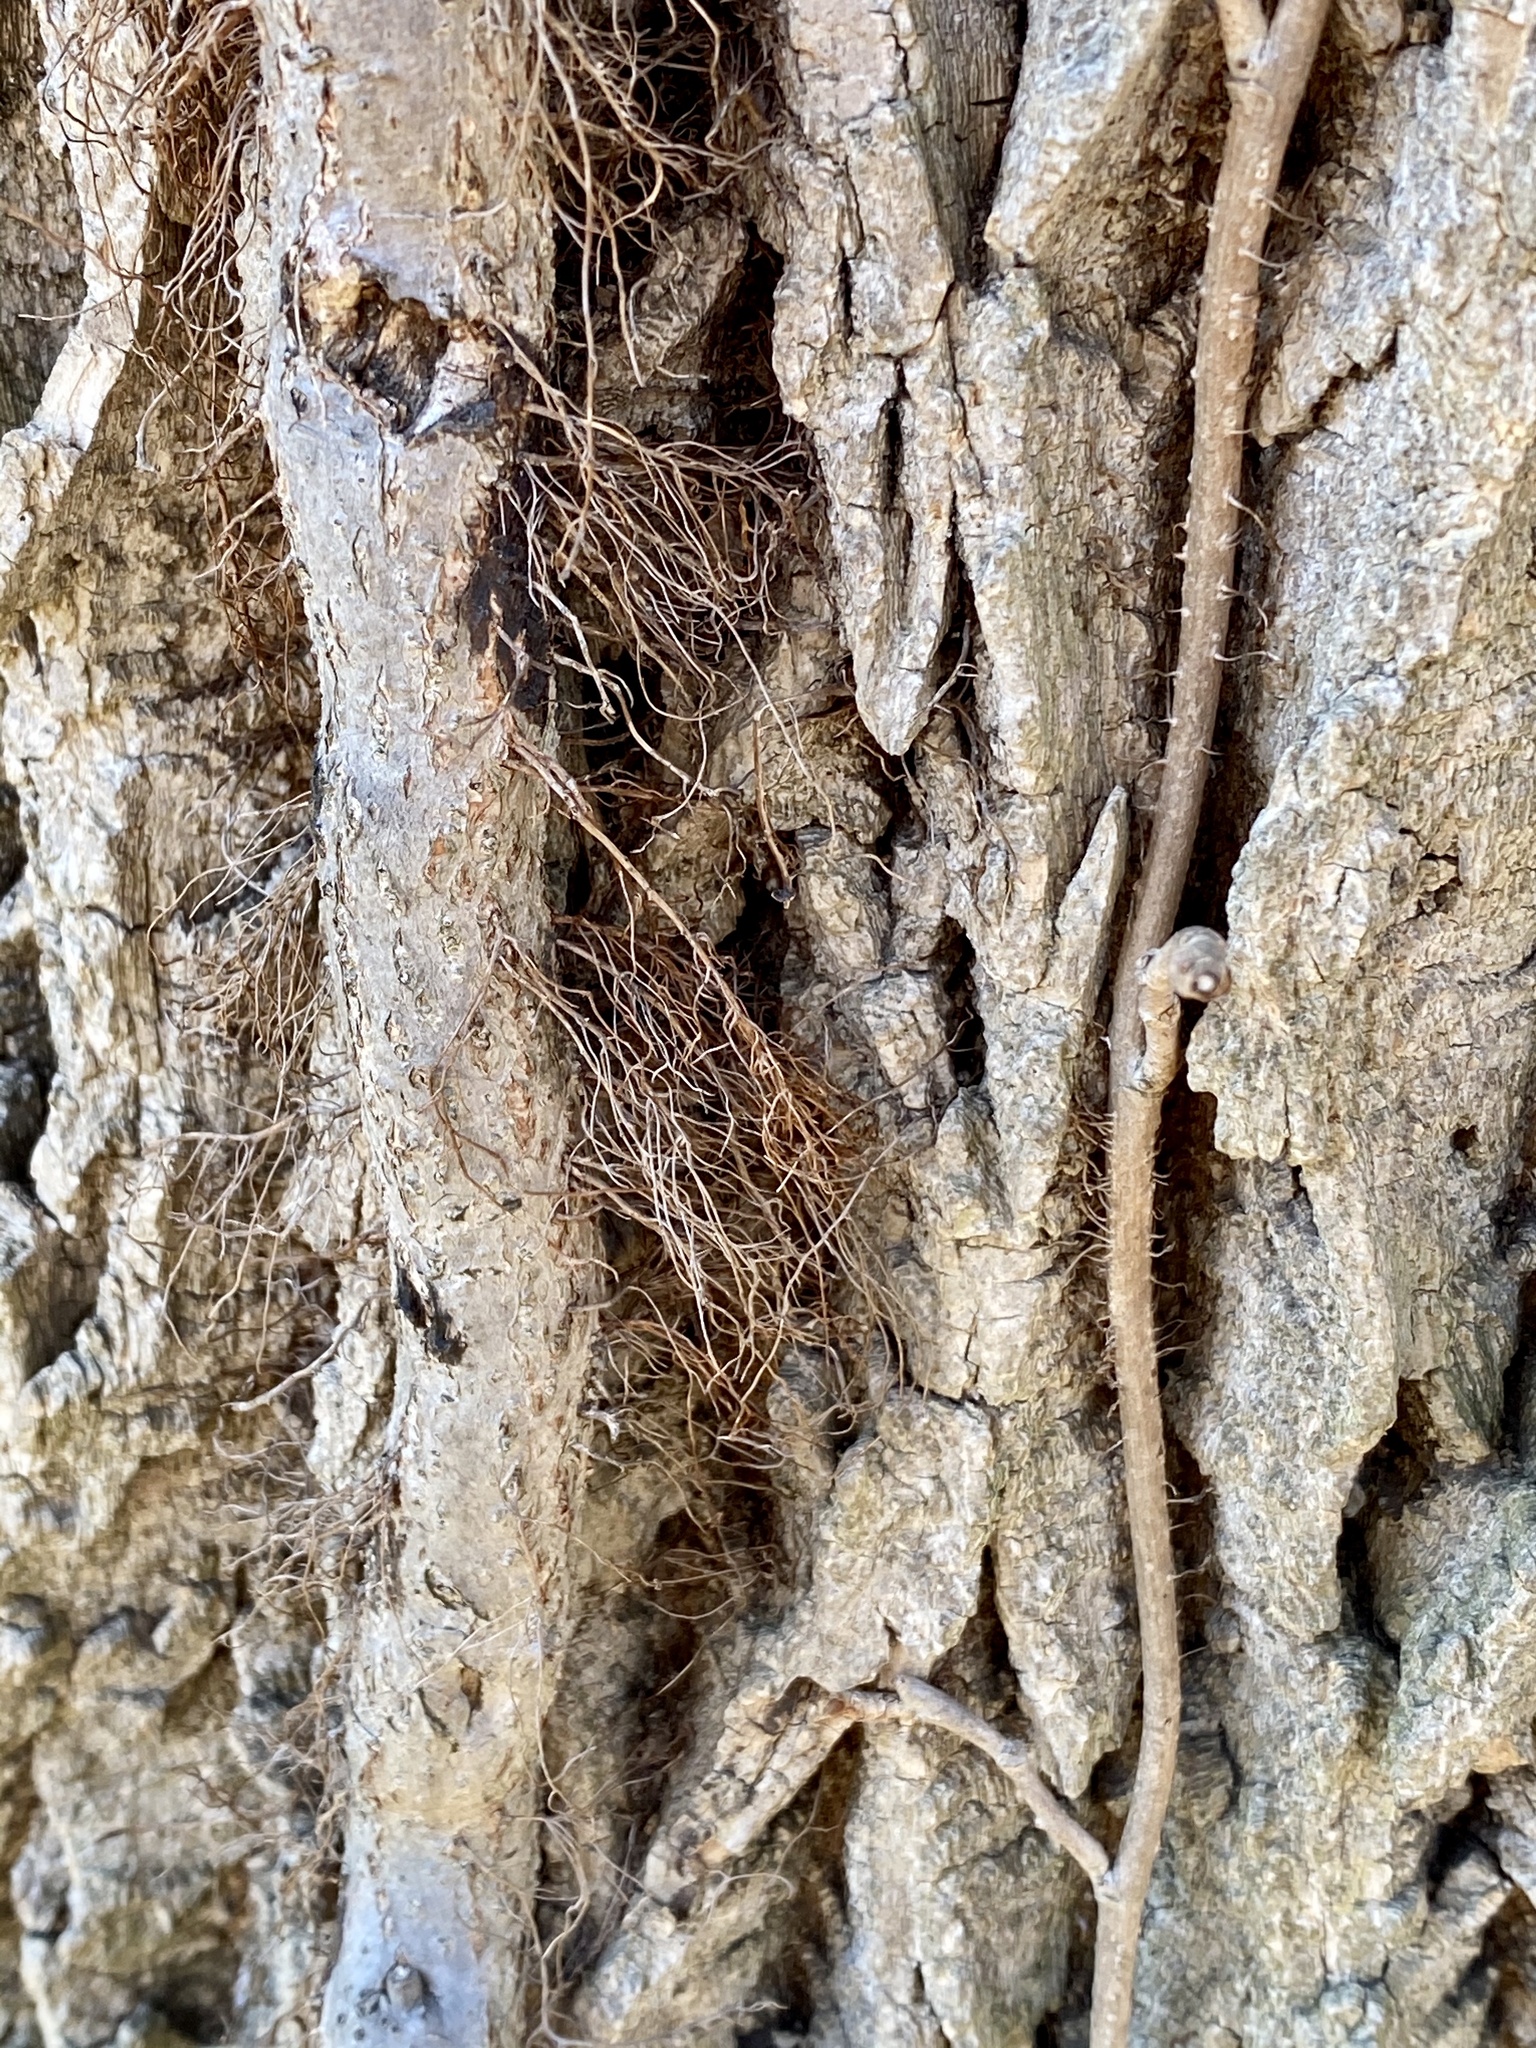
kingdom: Plantae
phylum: Tracheophyta
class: Magnoliopsida
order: Sapindales
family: Anacardiaceae
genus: Toxicodendron
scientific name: Toxicodendron radicans
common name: Poison ivy
